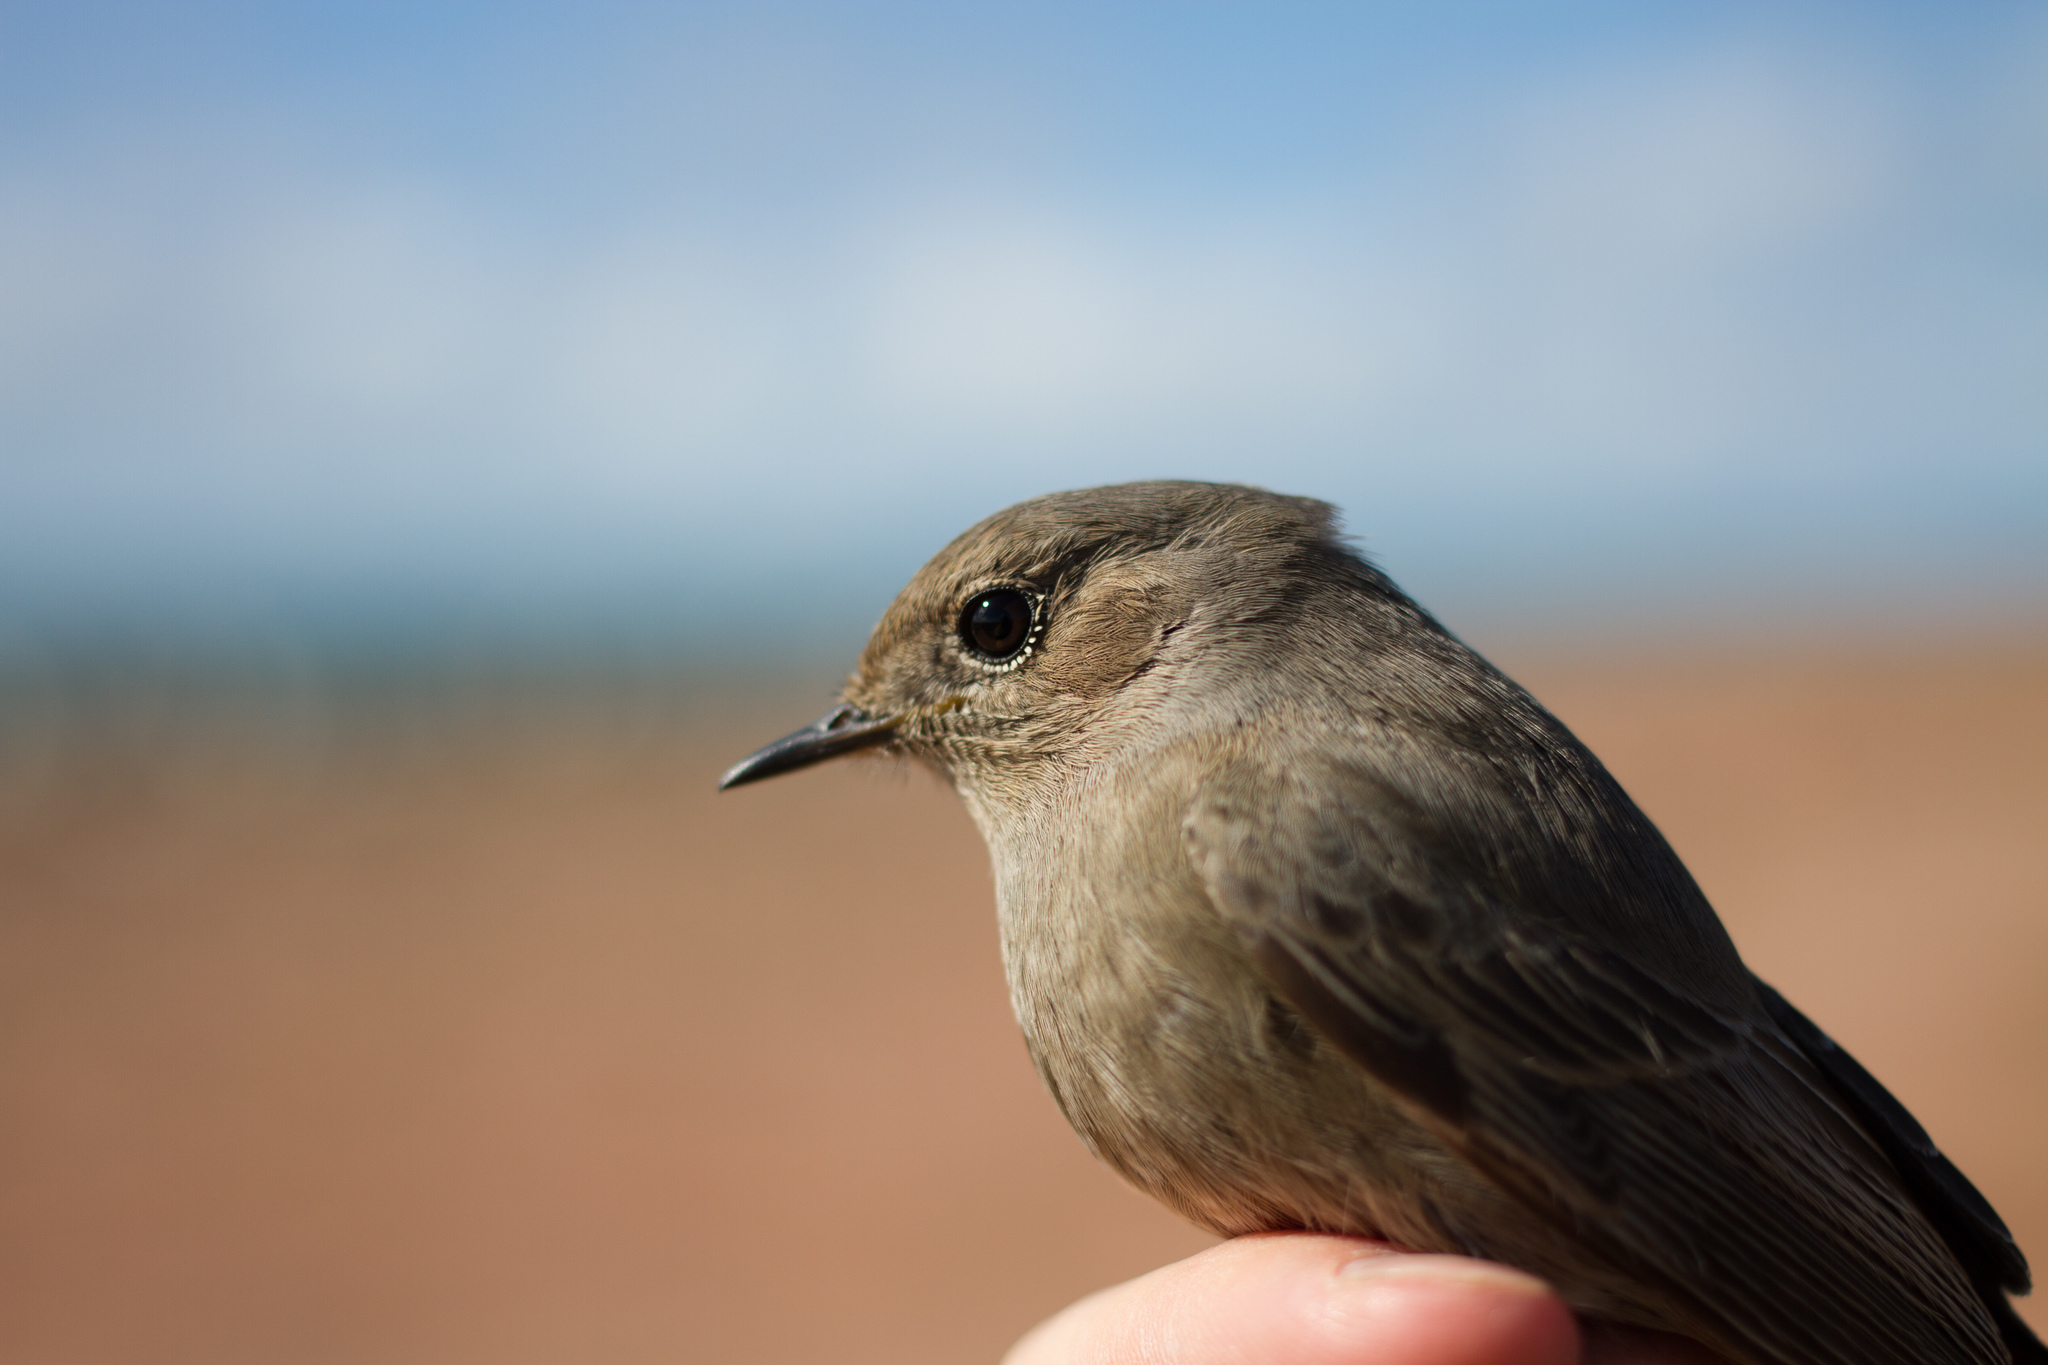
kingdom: Animalia
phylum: Chordata
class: Aves
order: Passeriformes
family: Muscicapidae
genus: Phoenicurus
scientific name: Phoenicurus ochruros
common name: Black redstart
